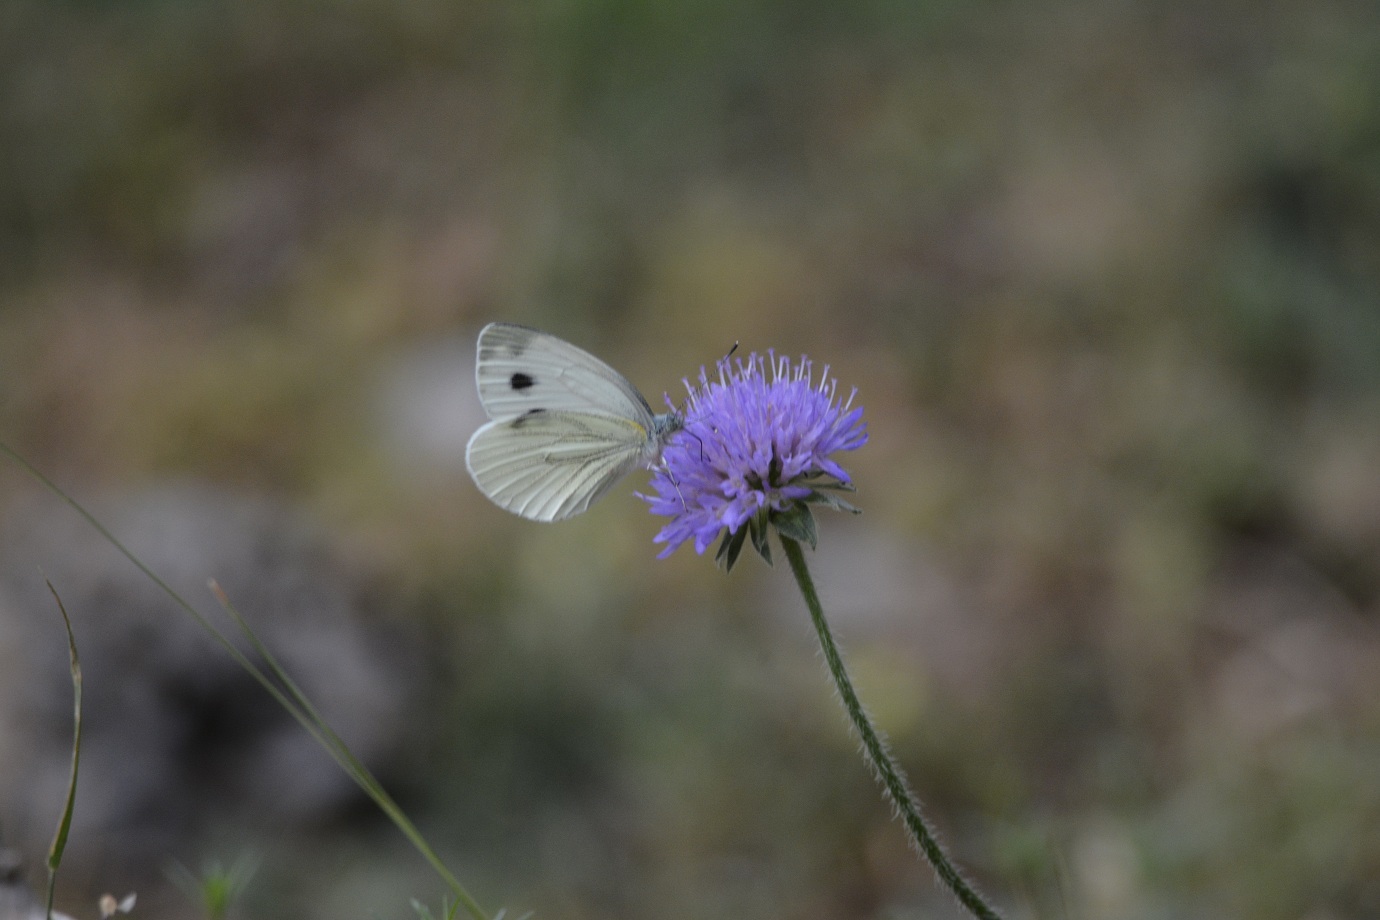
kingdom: Animalia
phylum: Arthropoda
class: Insecta
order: Lepidoptera
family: Pieridae
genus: Pieris
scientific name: Pieris napi
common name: Green-veined white
